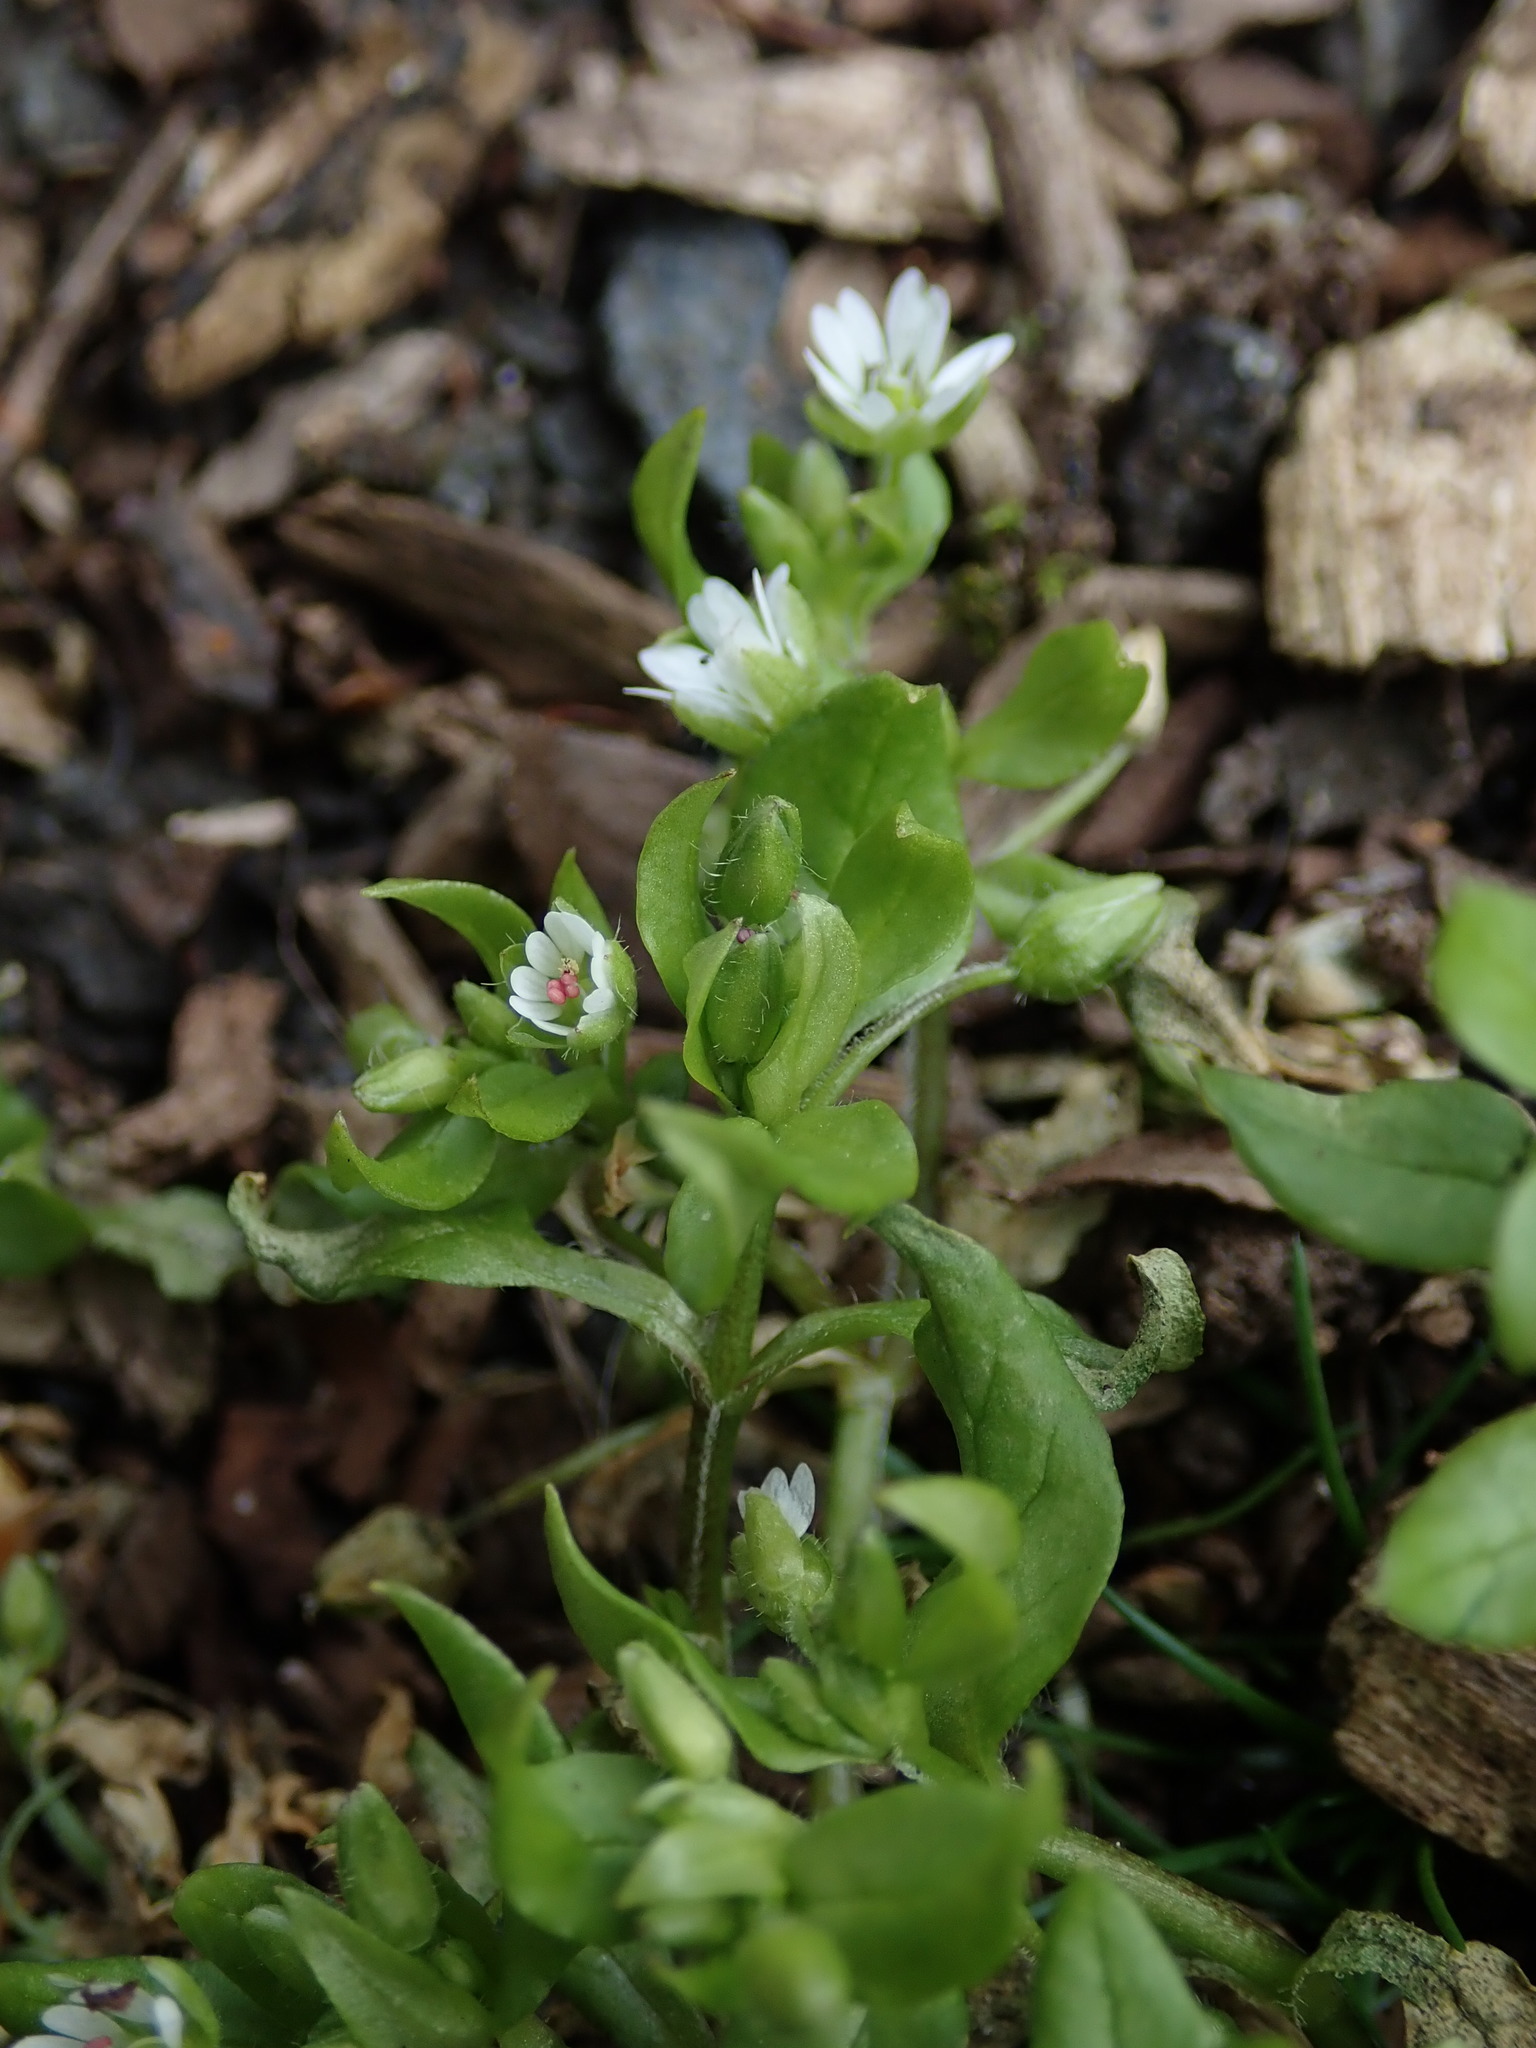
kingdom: Plantae
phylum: Tracheophyta
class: Magnoliopsida
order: Caryophyllales
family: Caryophyllaceae
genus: Stellaria
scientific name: Stellaria media
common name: Common chickweed
